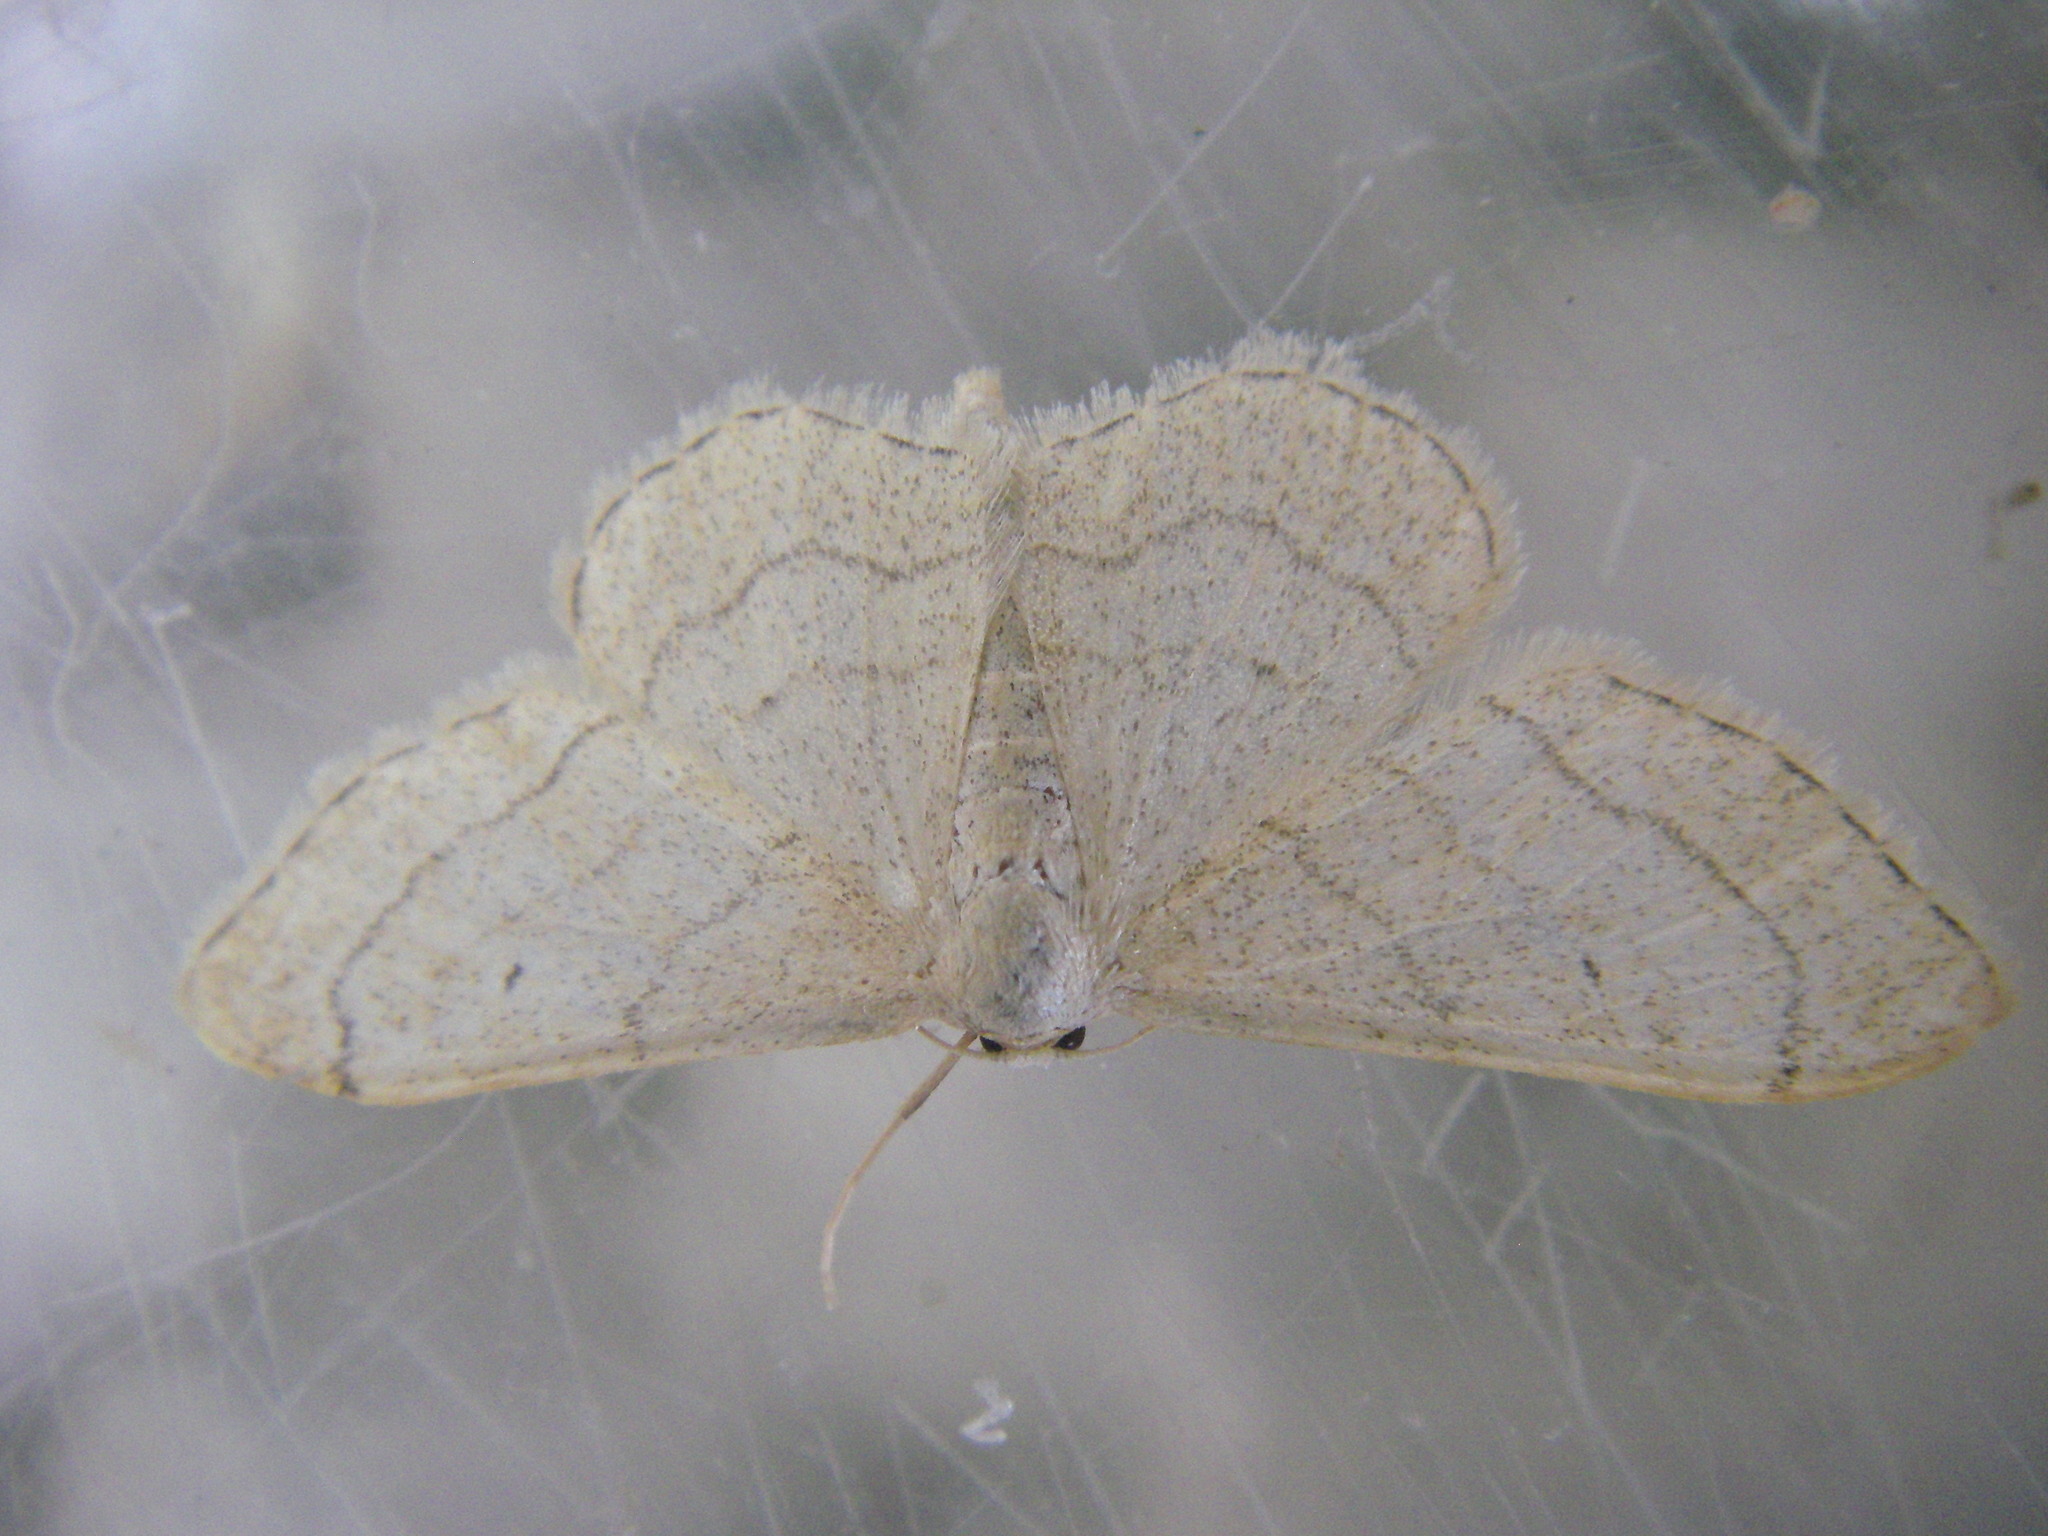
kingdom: Animalia
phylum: Arthropoda
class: Insecta
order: Lepidoptera
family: Geometridae
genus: Idaea
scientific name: Idaea aversata
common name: Riband wave
